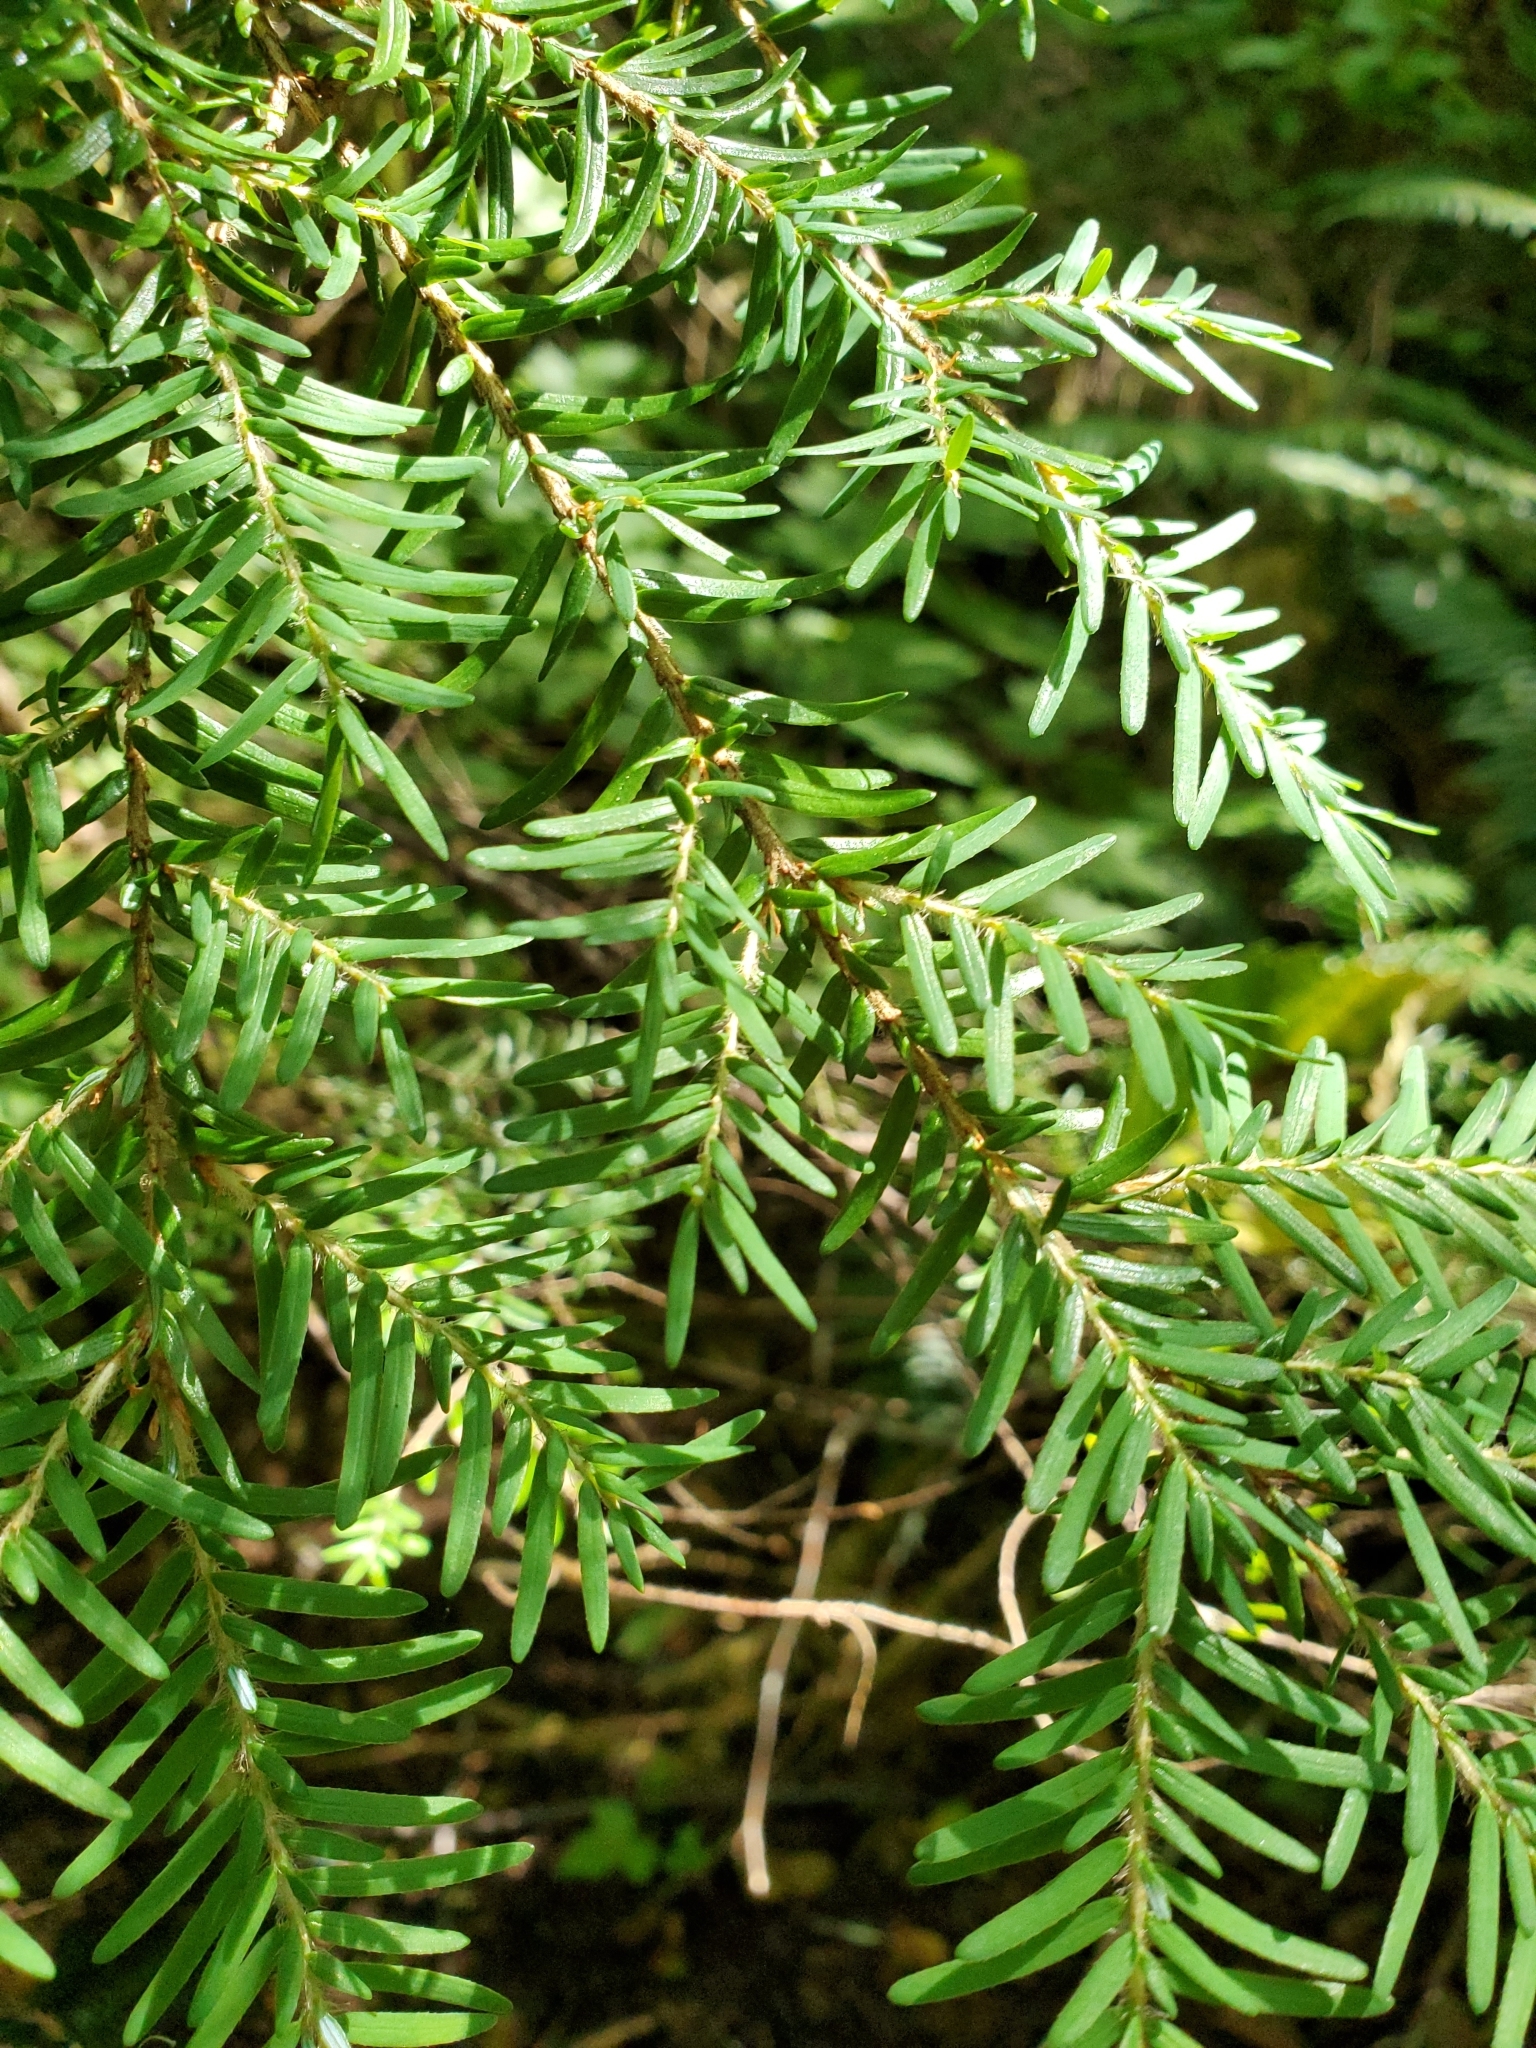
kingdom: Plantae
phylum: Tracheophyta
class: Pinopsida
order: Pinales
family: Pinaceae
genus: Tsuga
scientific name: Tsuga heterophylla
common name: Western hemlock
